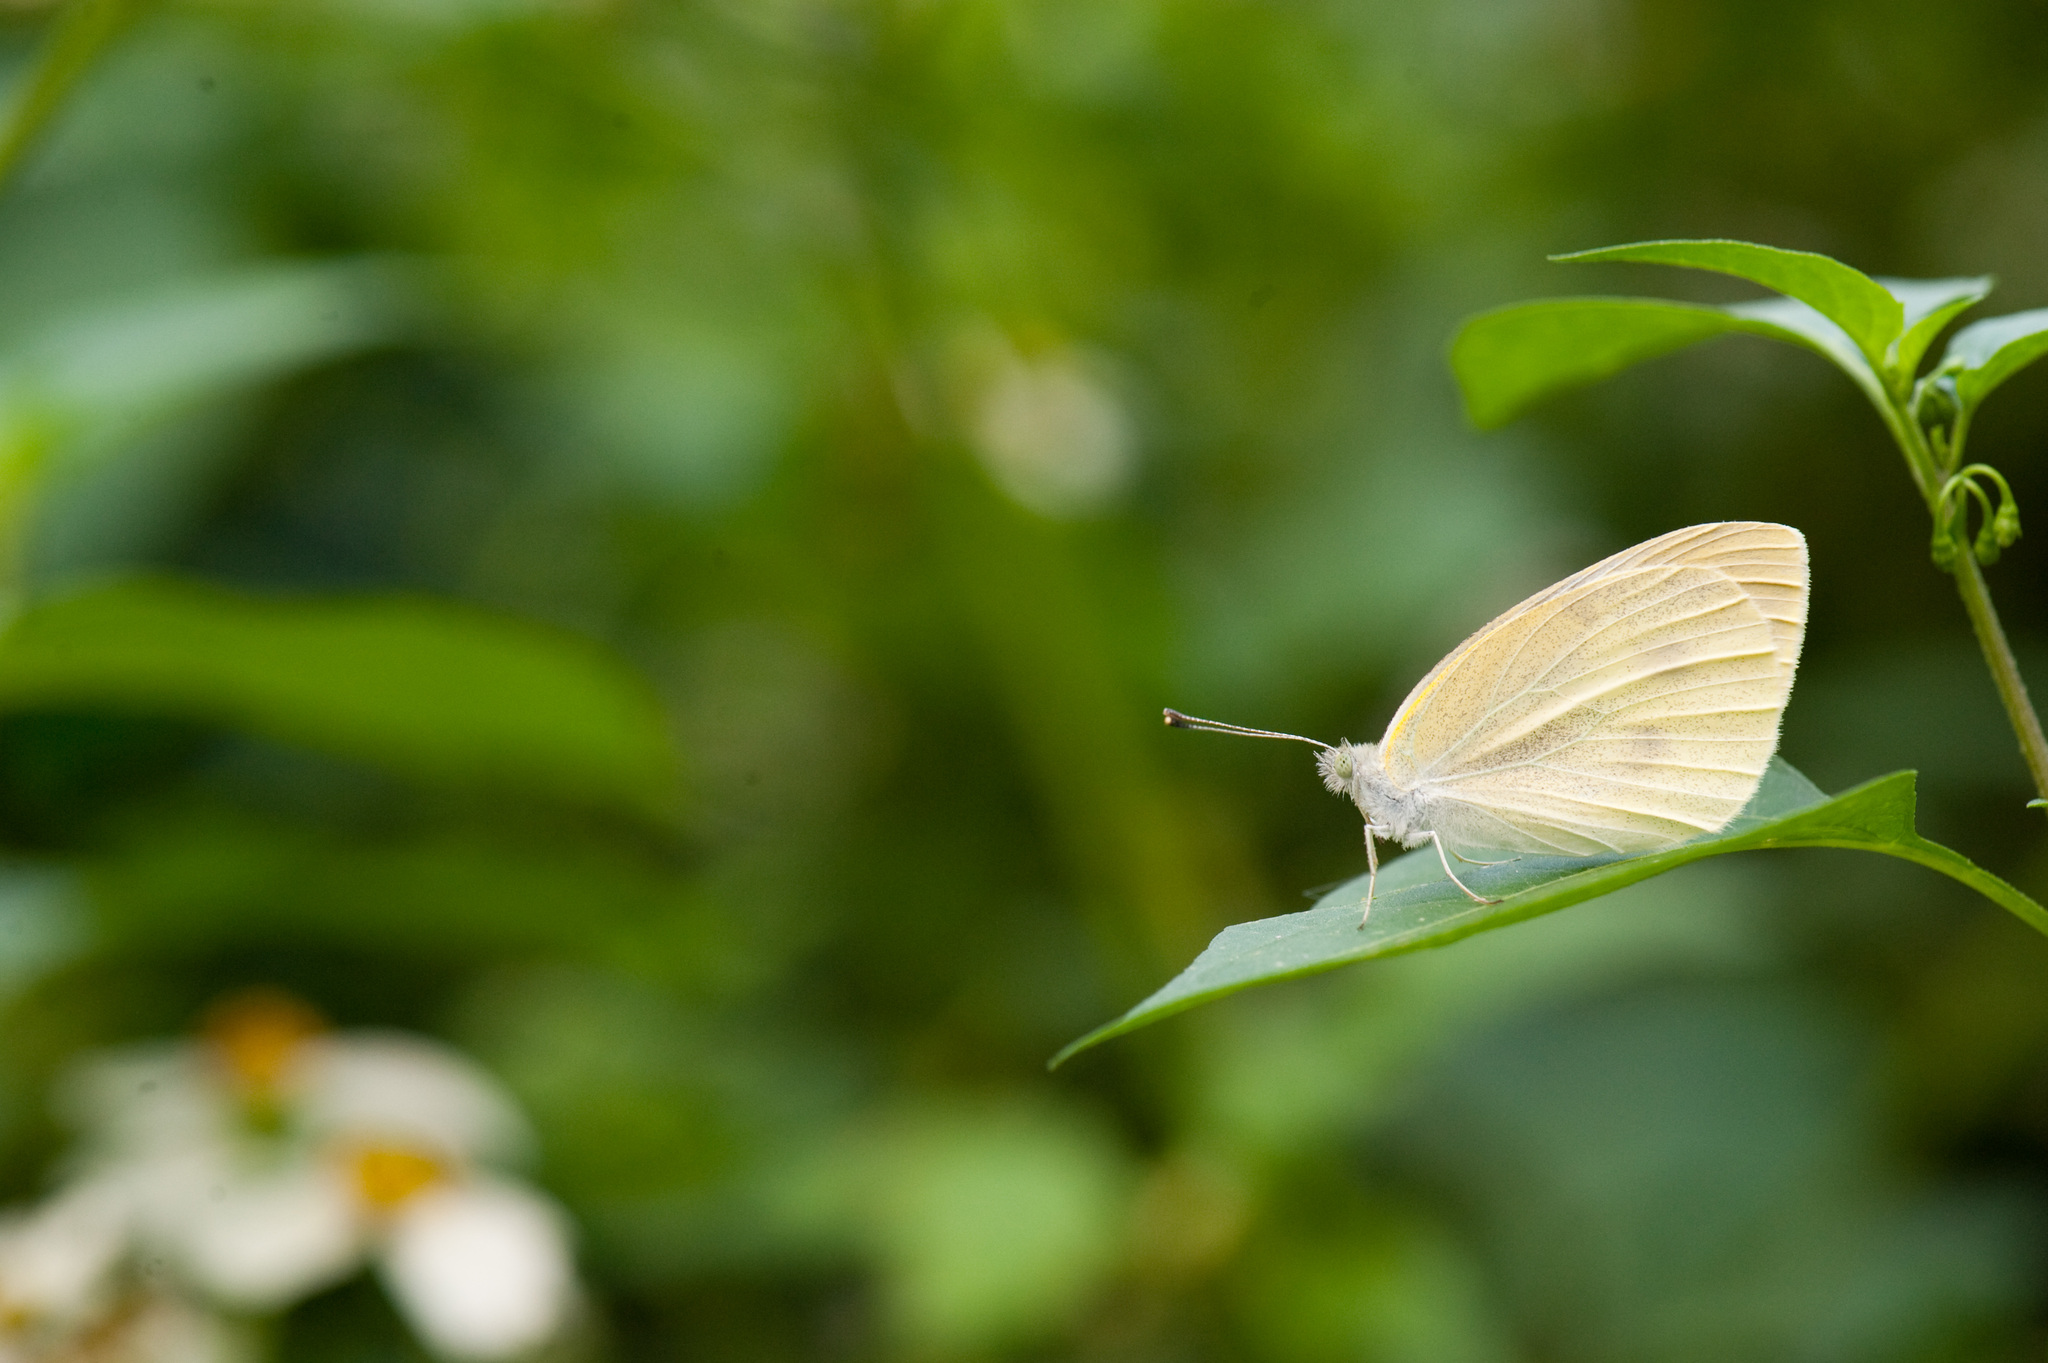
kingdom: Animalia
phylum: Arthropoda
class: Insecta
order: Lepidoptera
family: Pieridae
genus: Pieris
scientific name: Pieris rapae
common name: Small white
